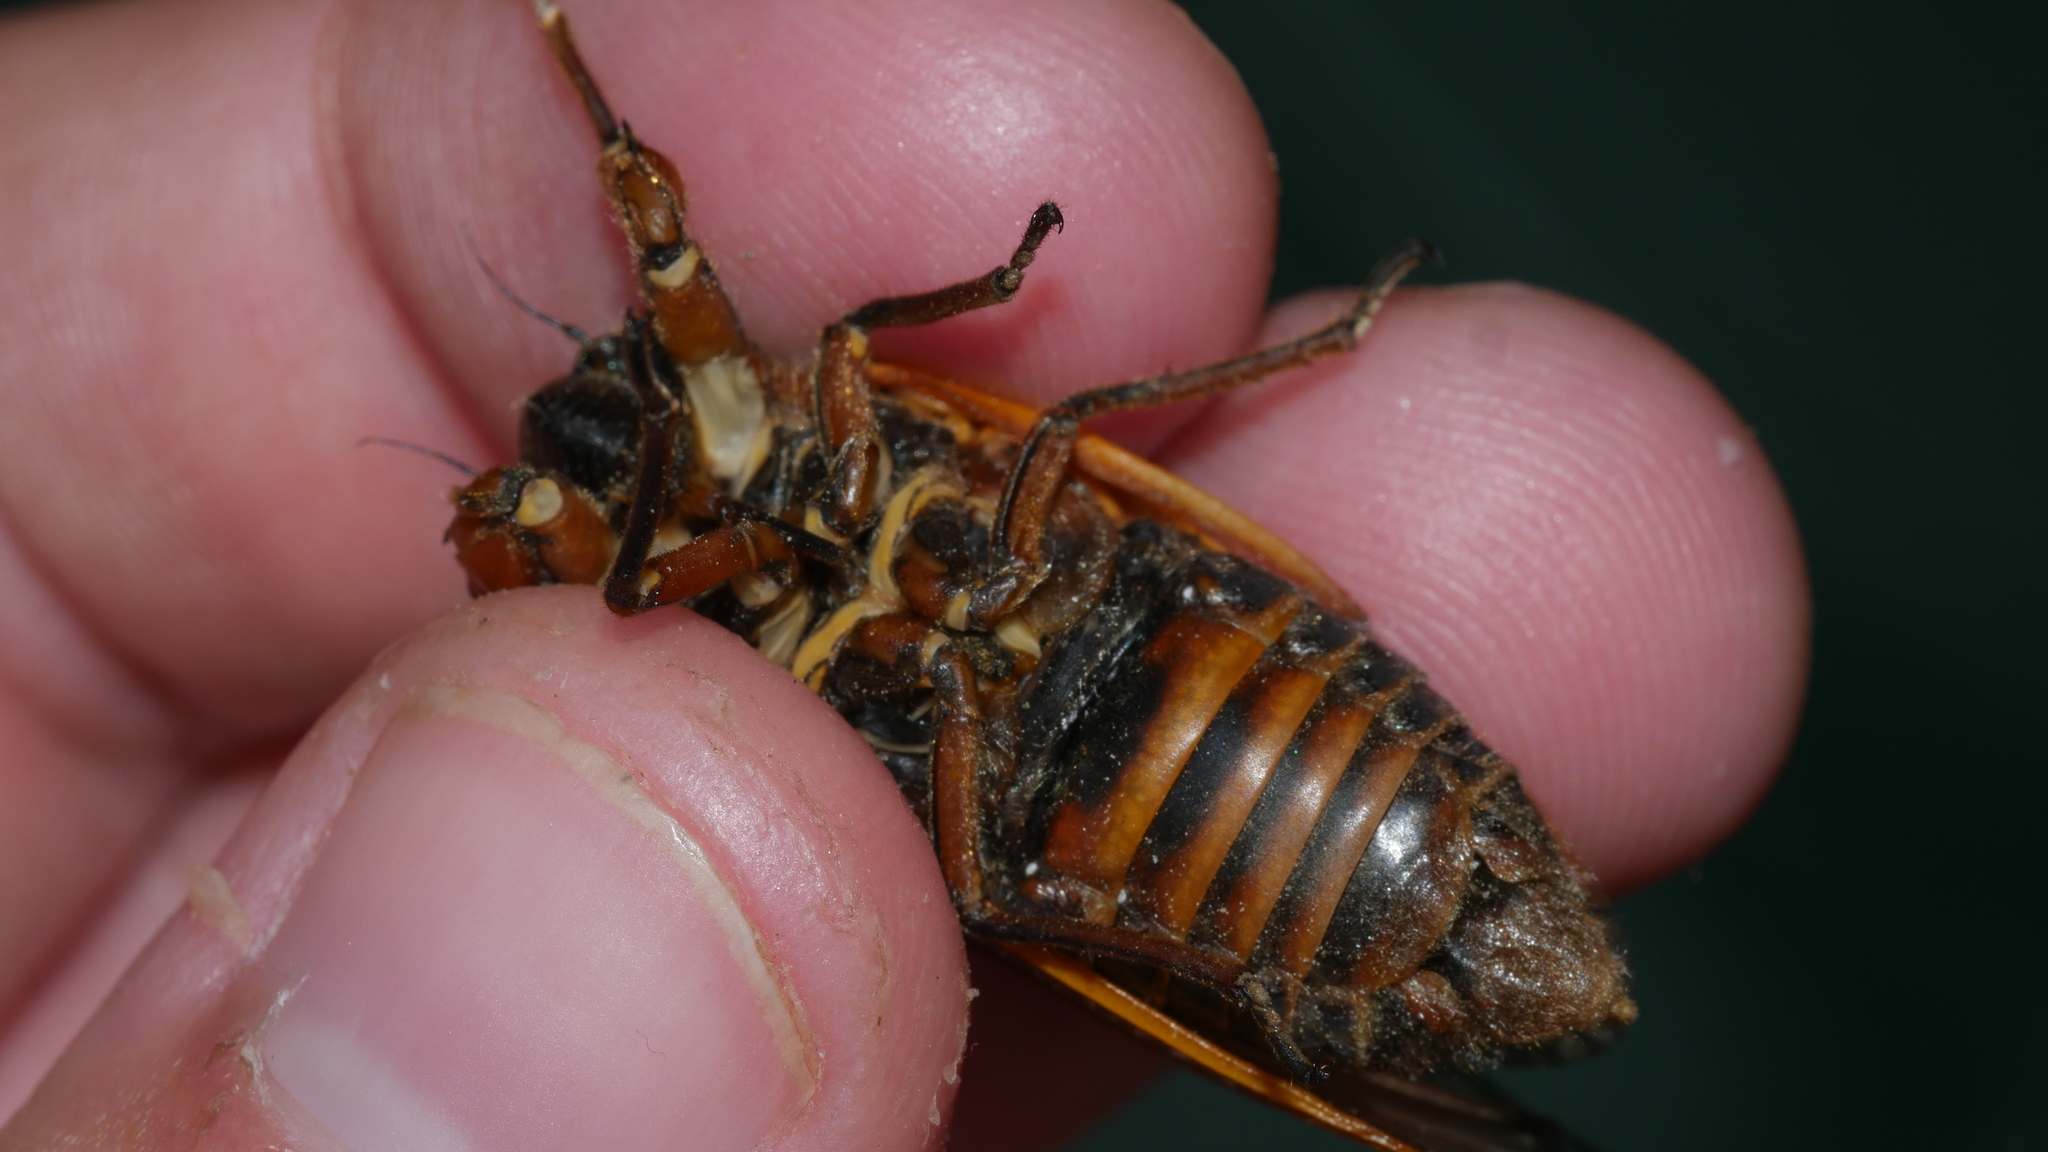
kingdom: Animalia
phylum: Arthropoda
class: Insecta
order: Hemiptera
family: Cicadidae
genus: Magicicada
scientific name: Magicicada septendecim
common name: Periodical cicada
